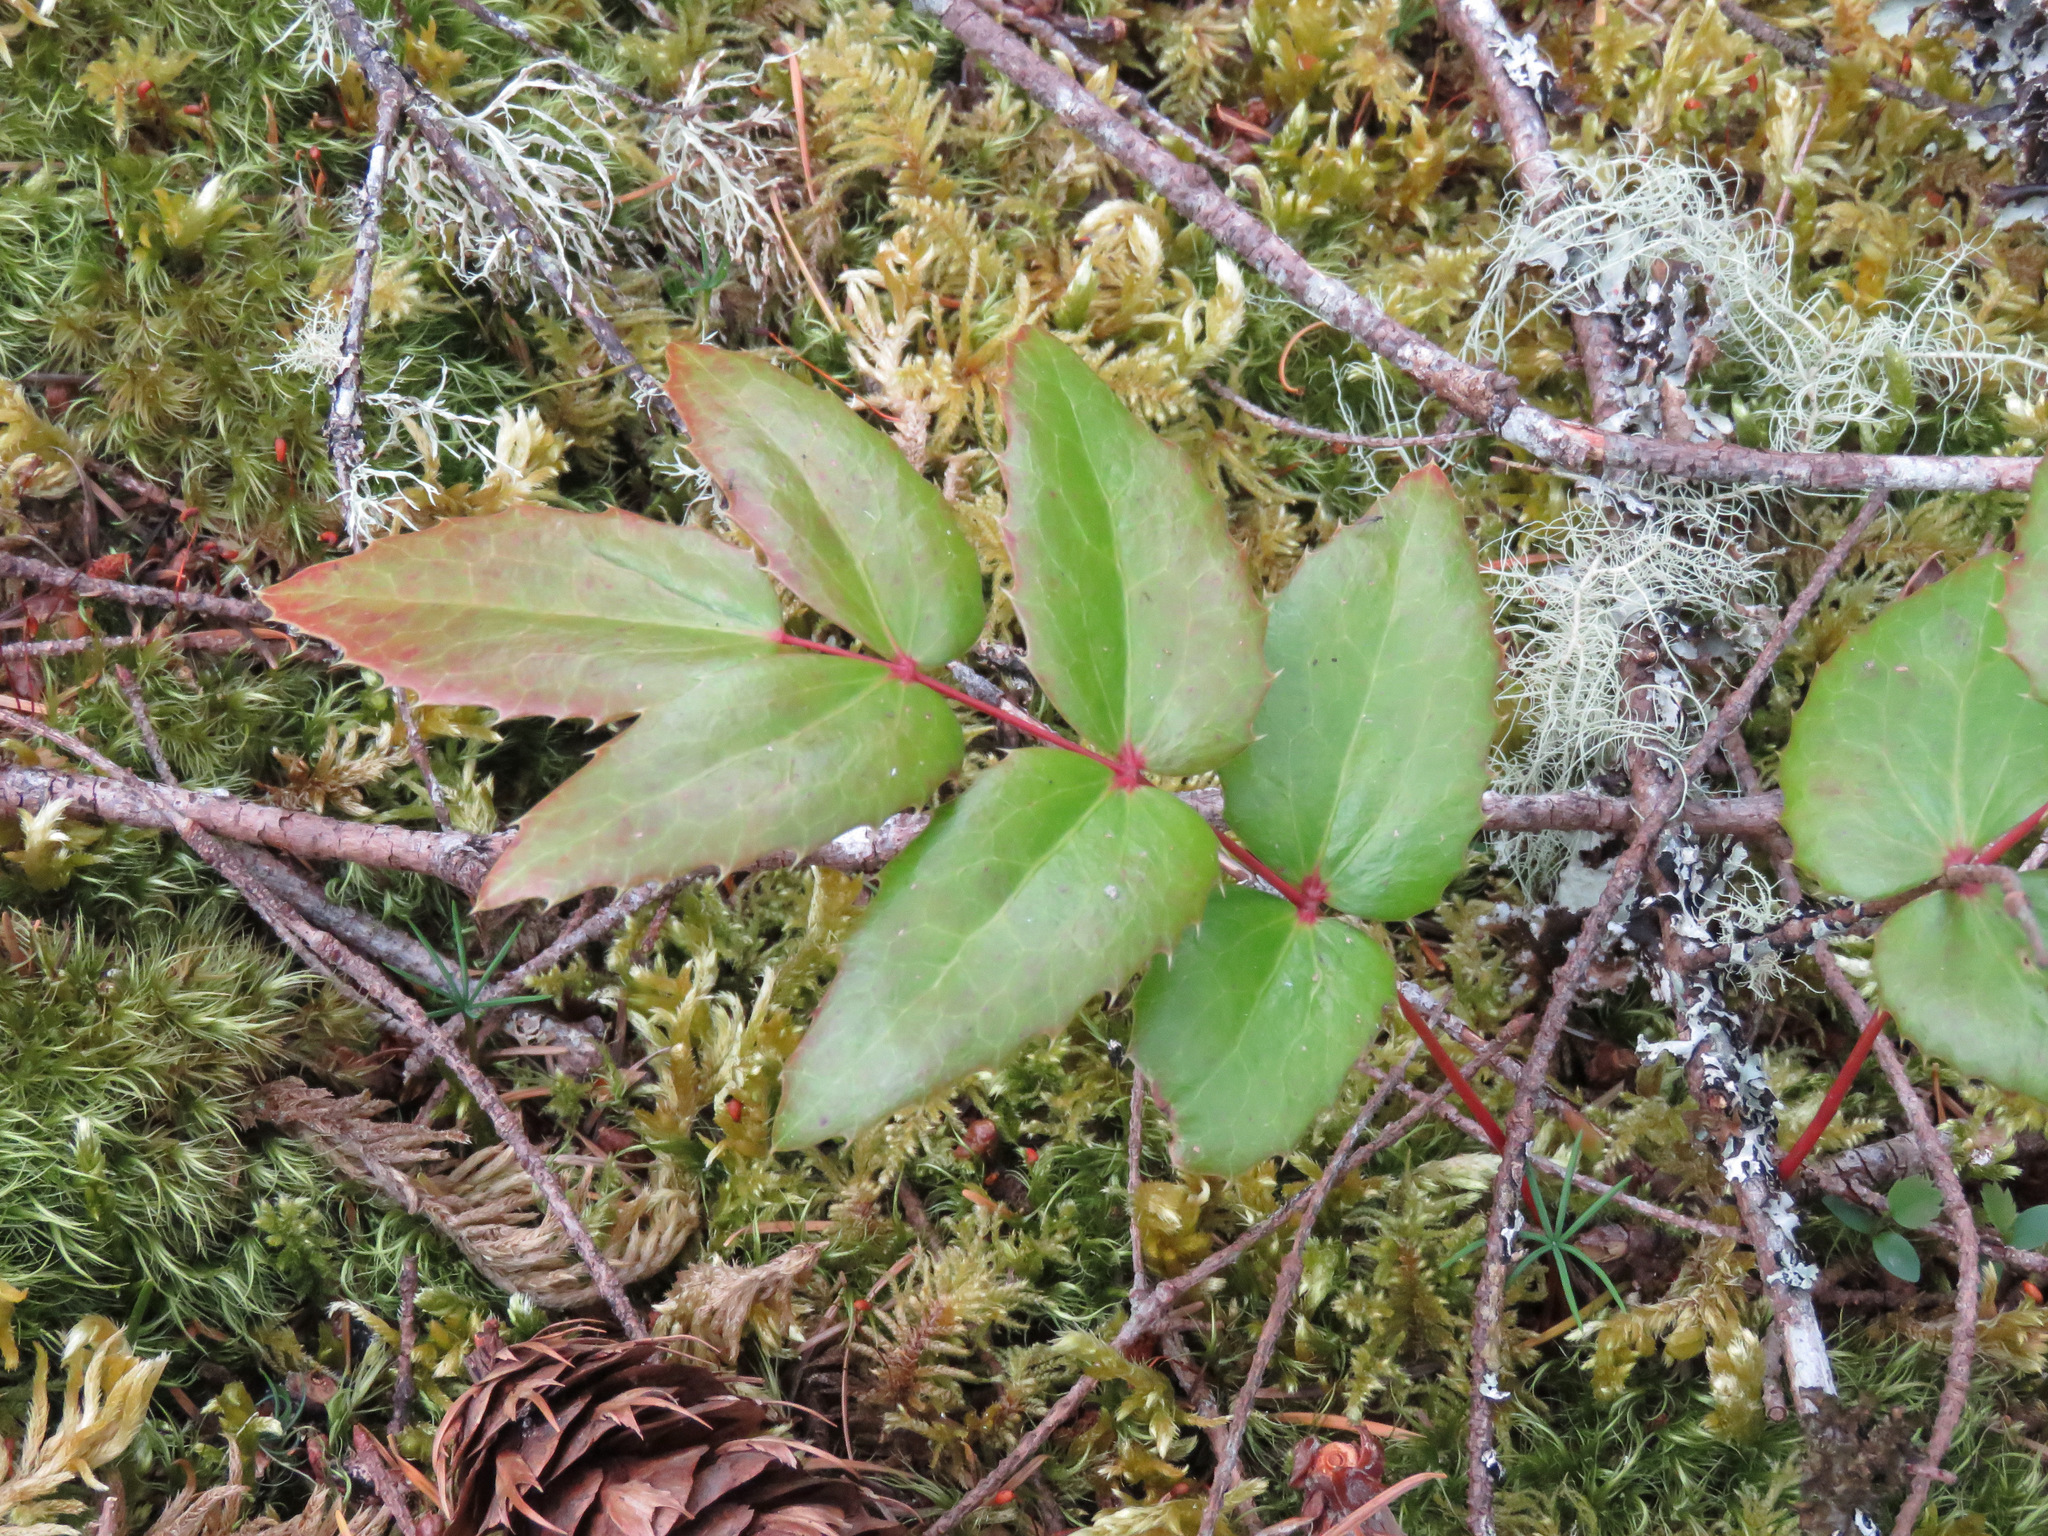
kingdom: Plantae
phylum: Tracheophyta
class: Magnoliopsida
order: Ranunculales
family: Berberidaceae
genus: Mahonia
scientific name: Mahonia nervosa
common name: Cascade oregon-grape
